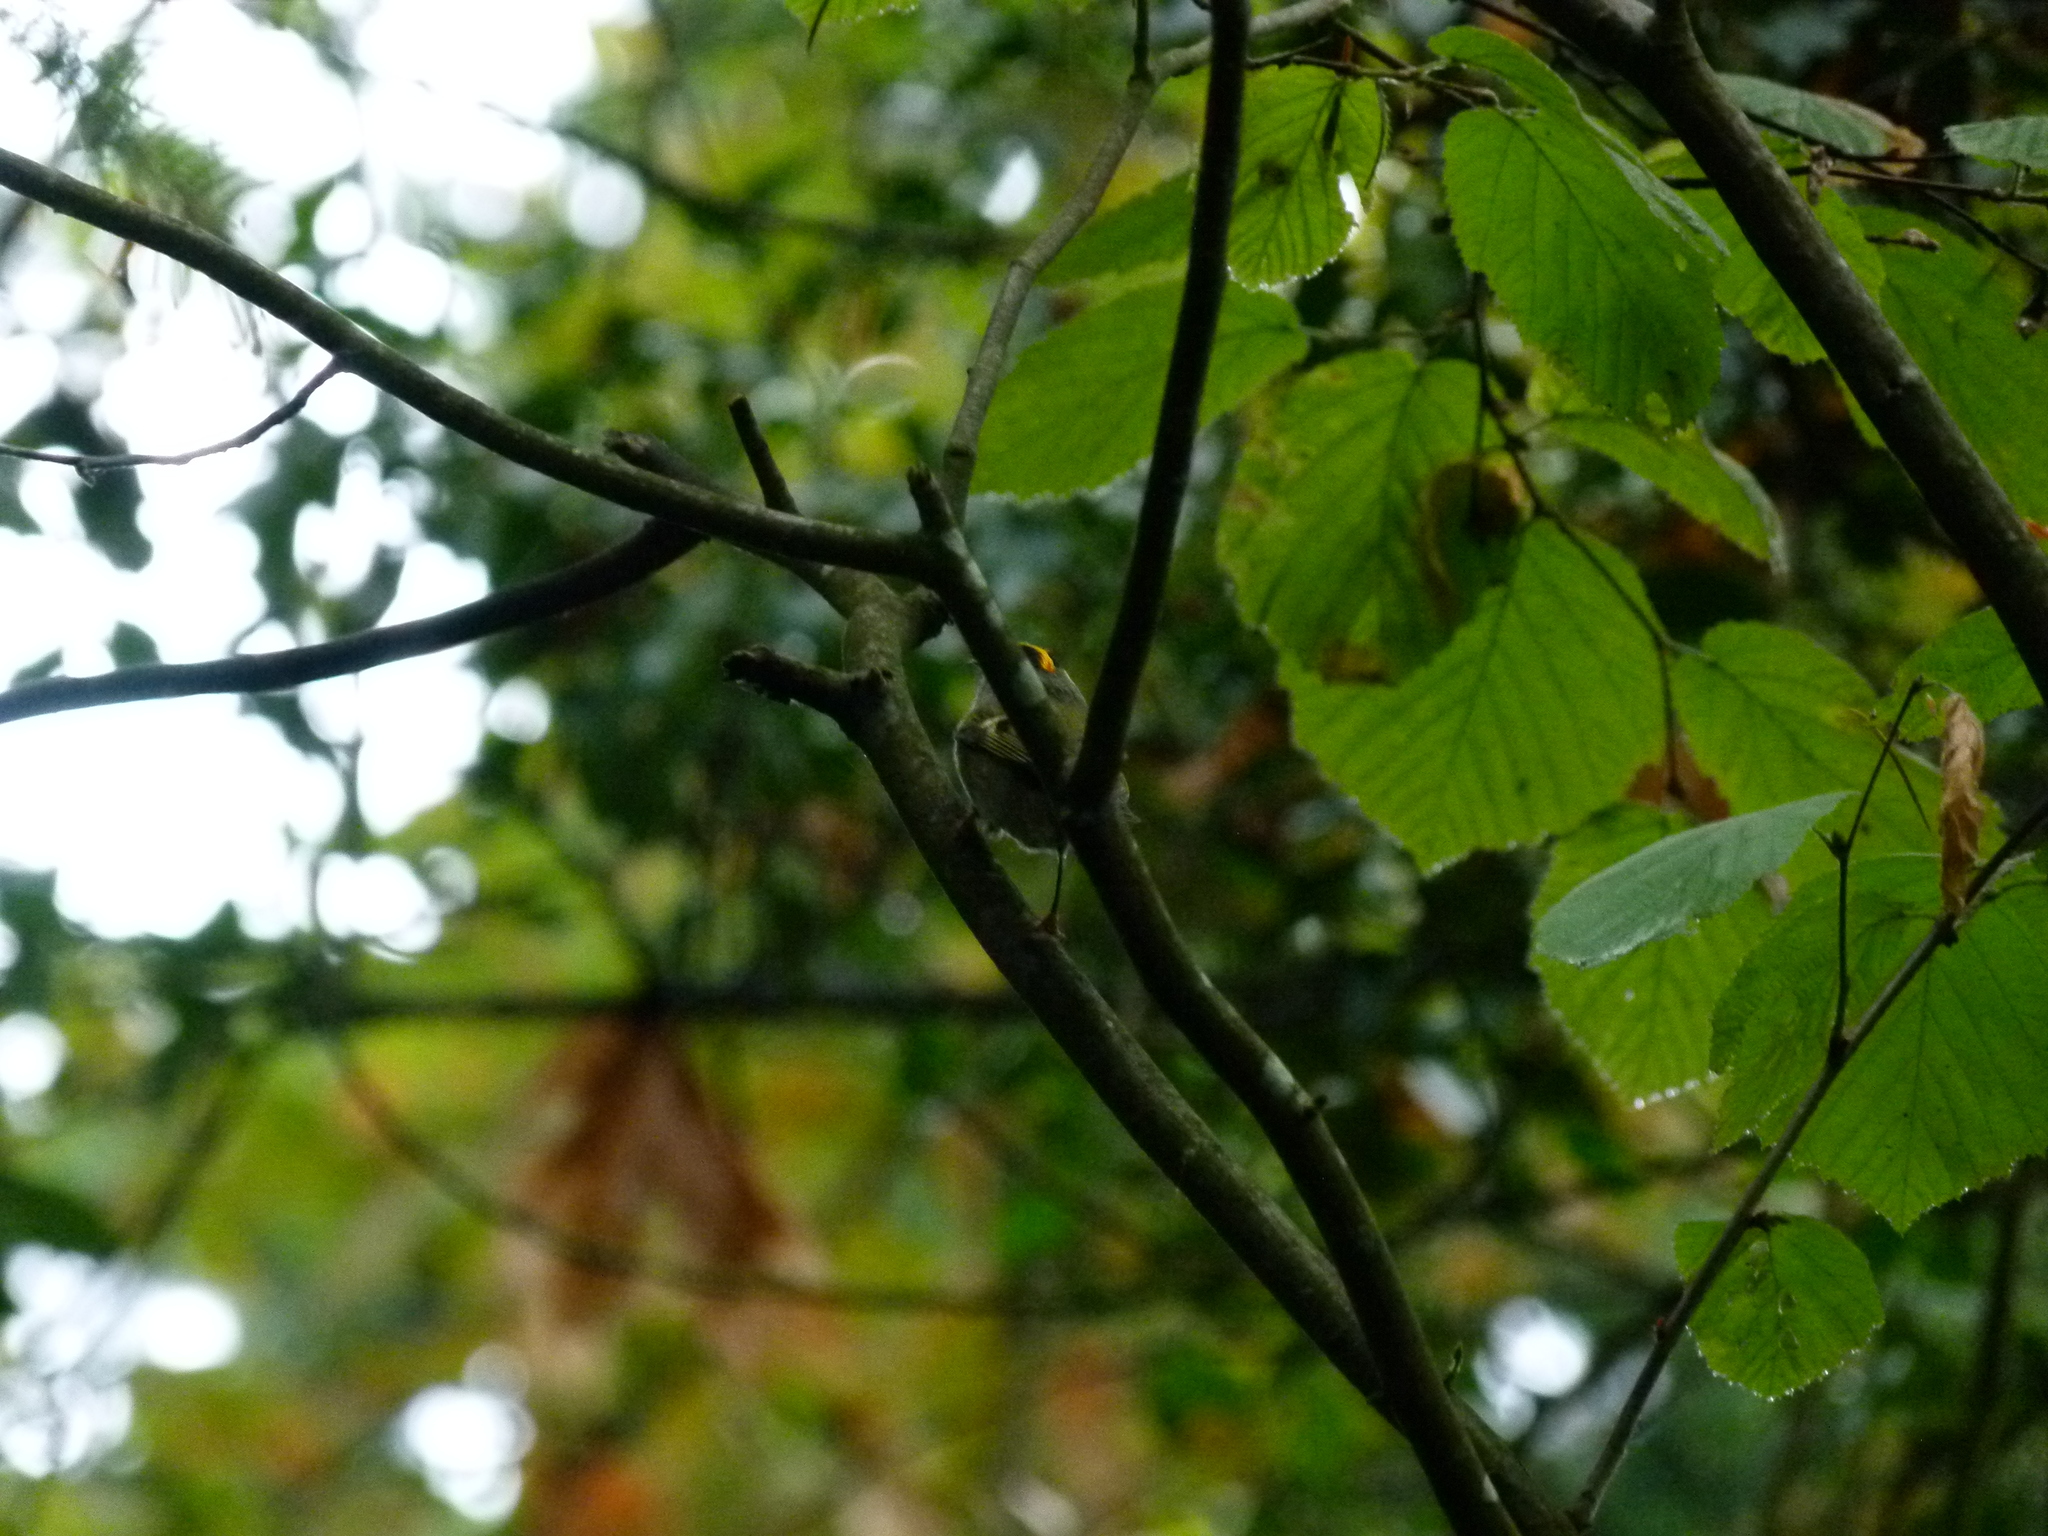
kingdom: Animalia
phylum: Chordata
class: Aves
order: Passeriformes
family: Regulidae
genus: Regulus
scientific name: Regulus satrapa
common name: Golden-crowned kinglet
